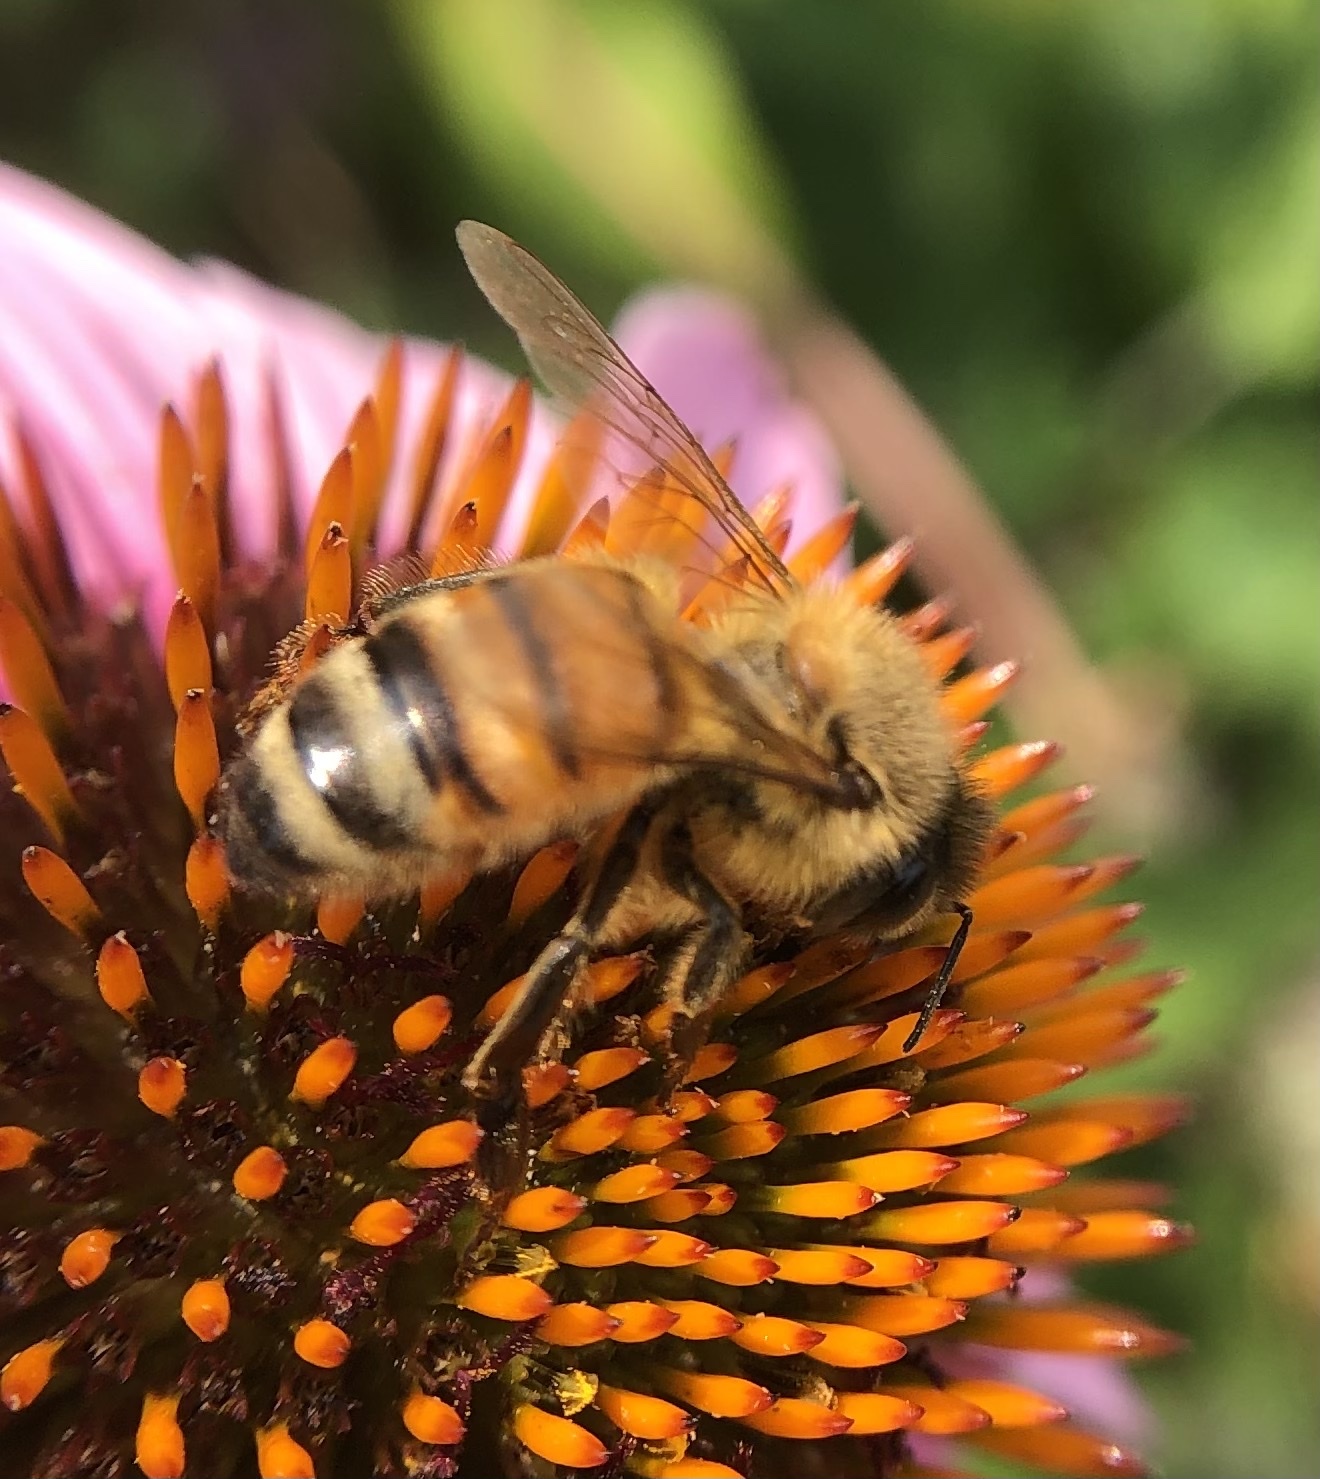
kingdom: Animalia
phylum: Arthropoda
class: Insecta
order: Hymenoptera
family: Apidae
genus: Apis
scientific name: Apis mellifera
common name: Honey bee
